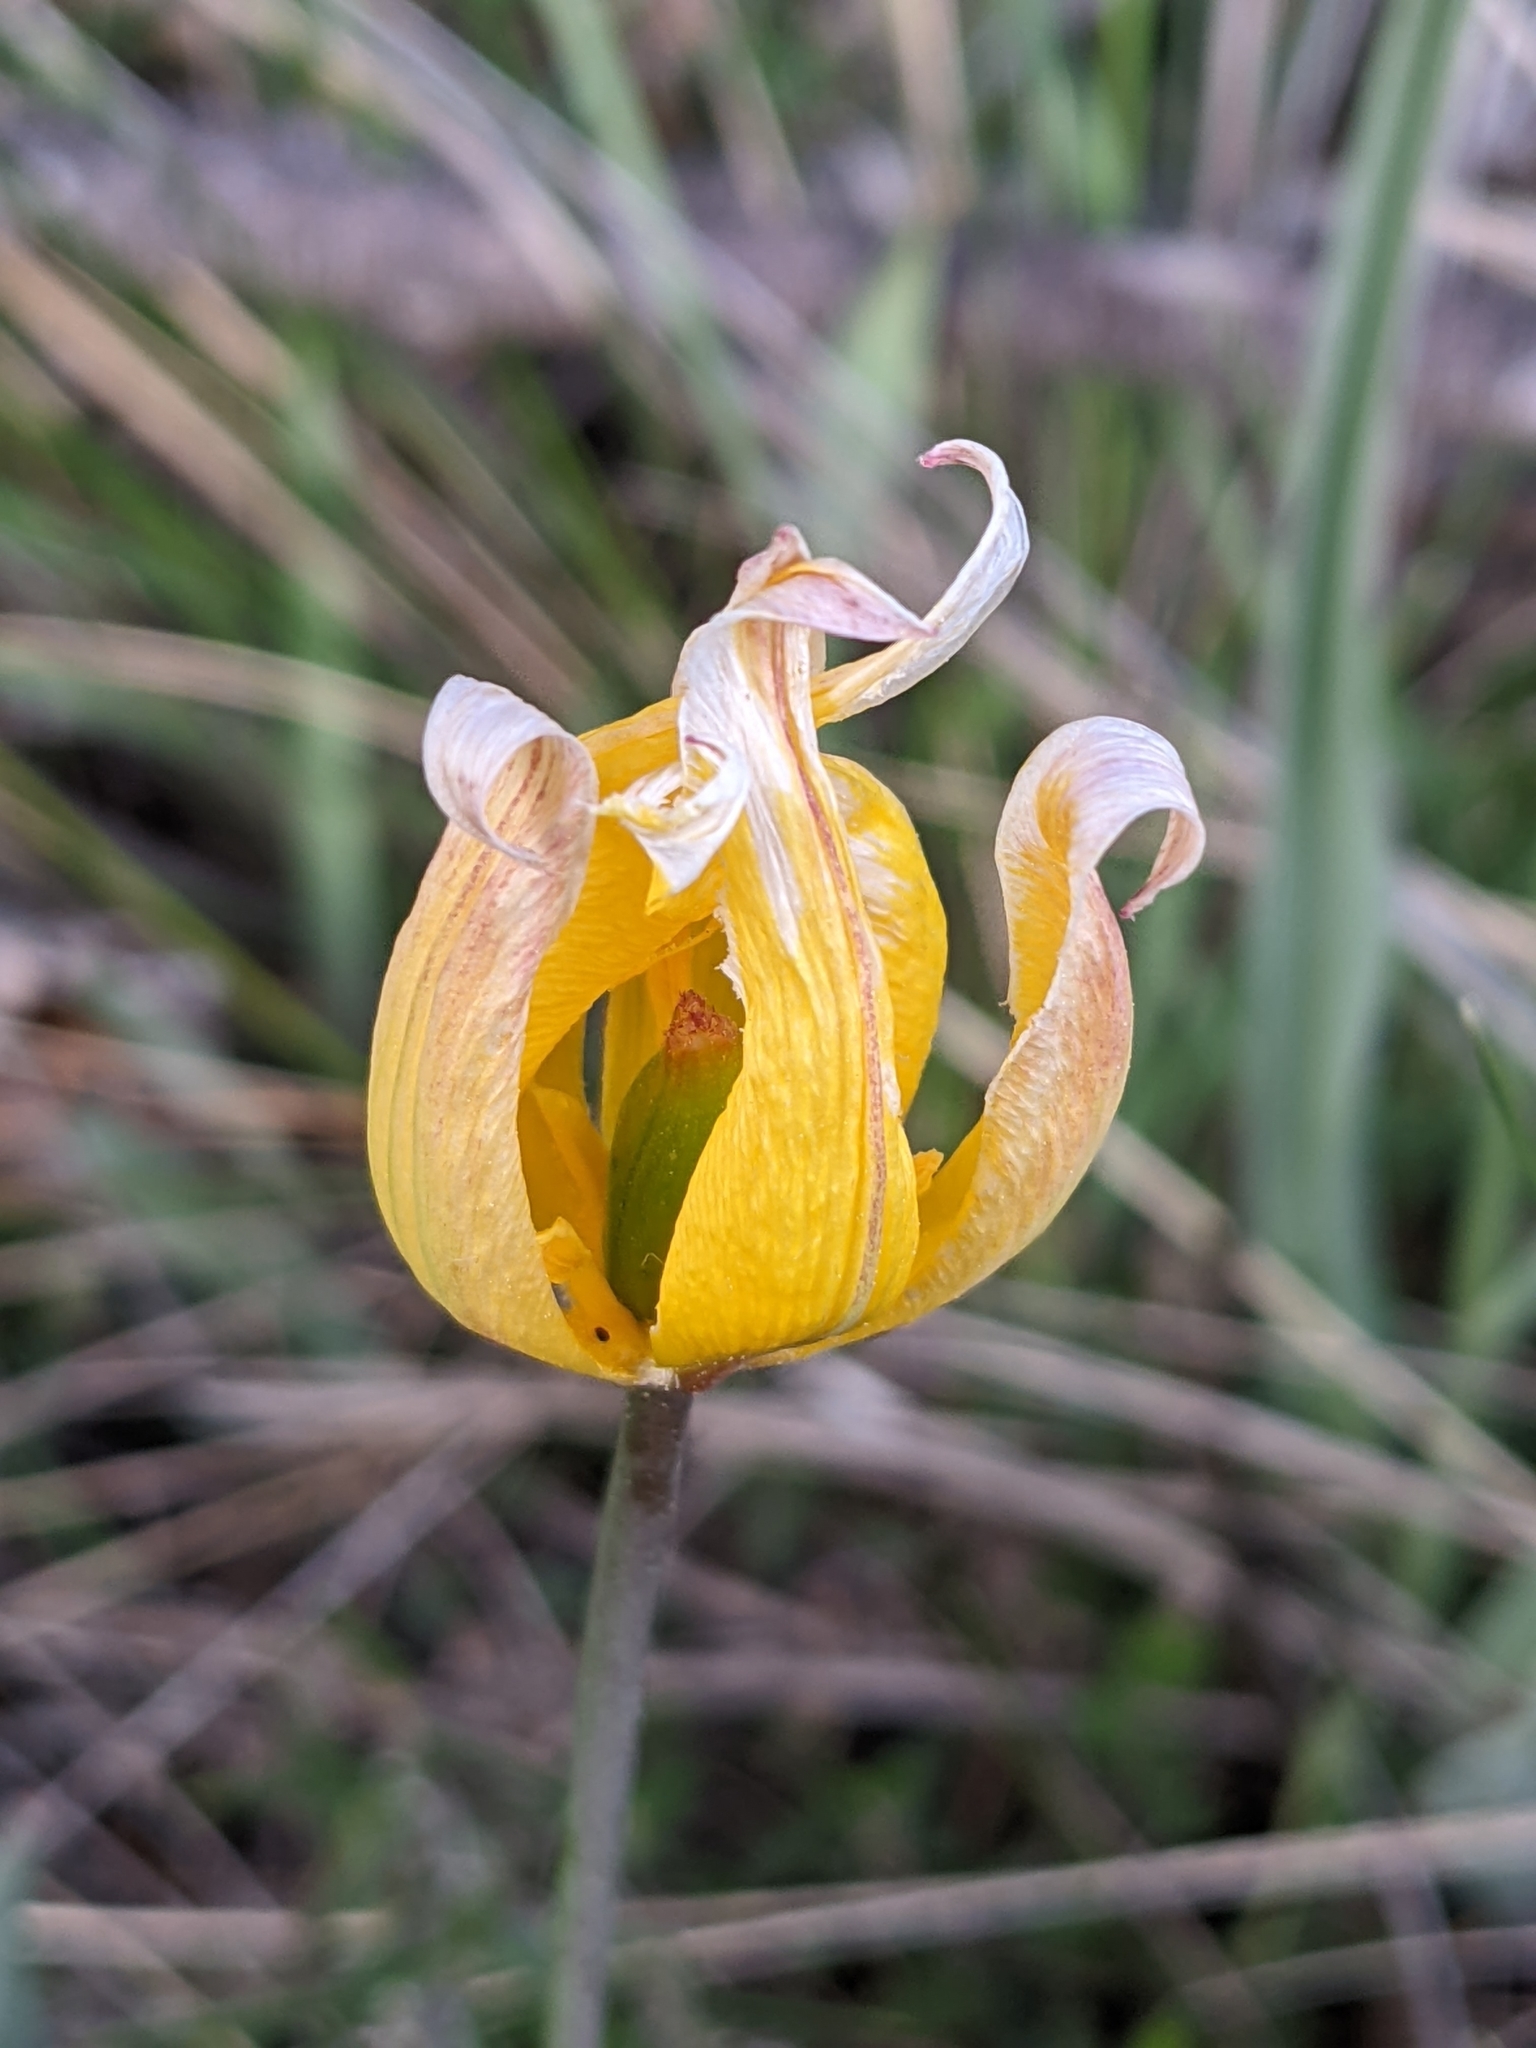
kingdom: Plantae
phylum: Tracheophyta
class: Liliopsida
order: Liliales
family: Liliaceae
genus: Tulipa
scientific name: Tulipa sylvestris
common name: Wild tulip
